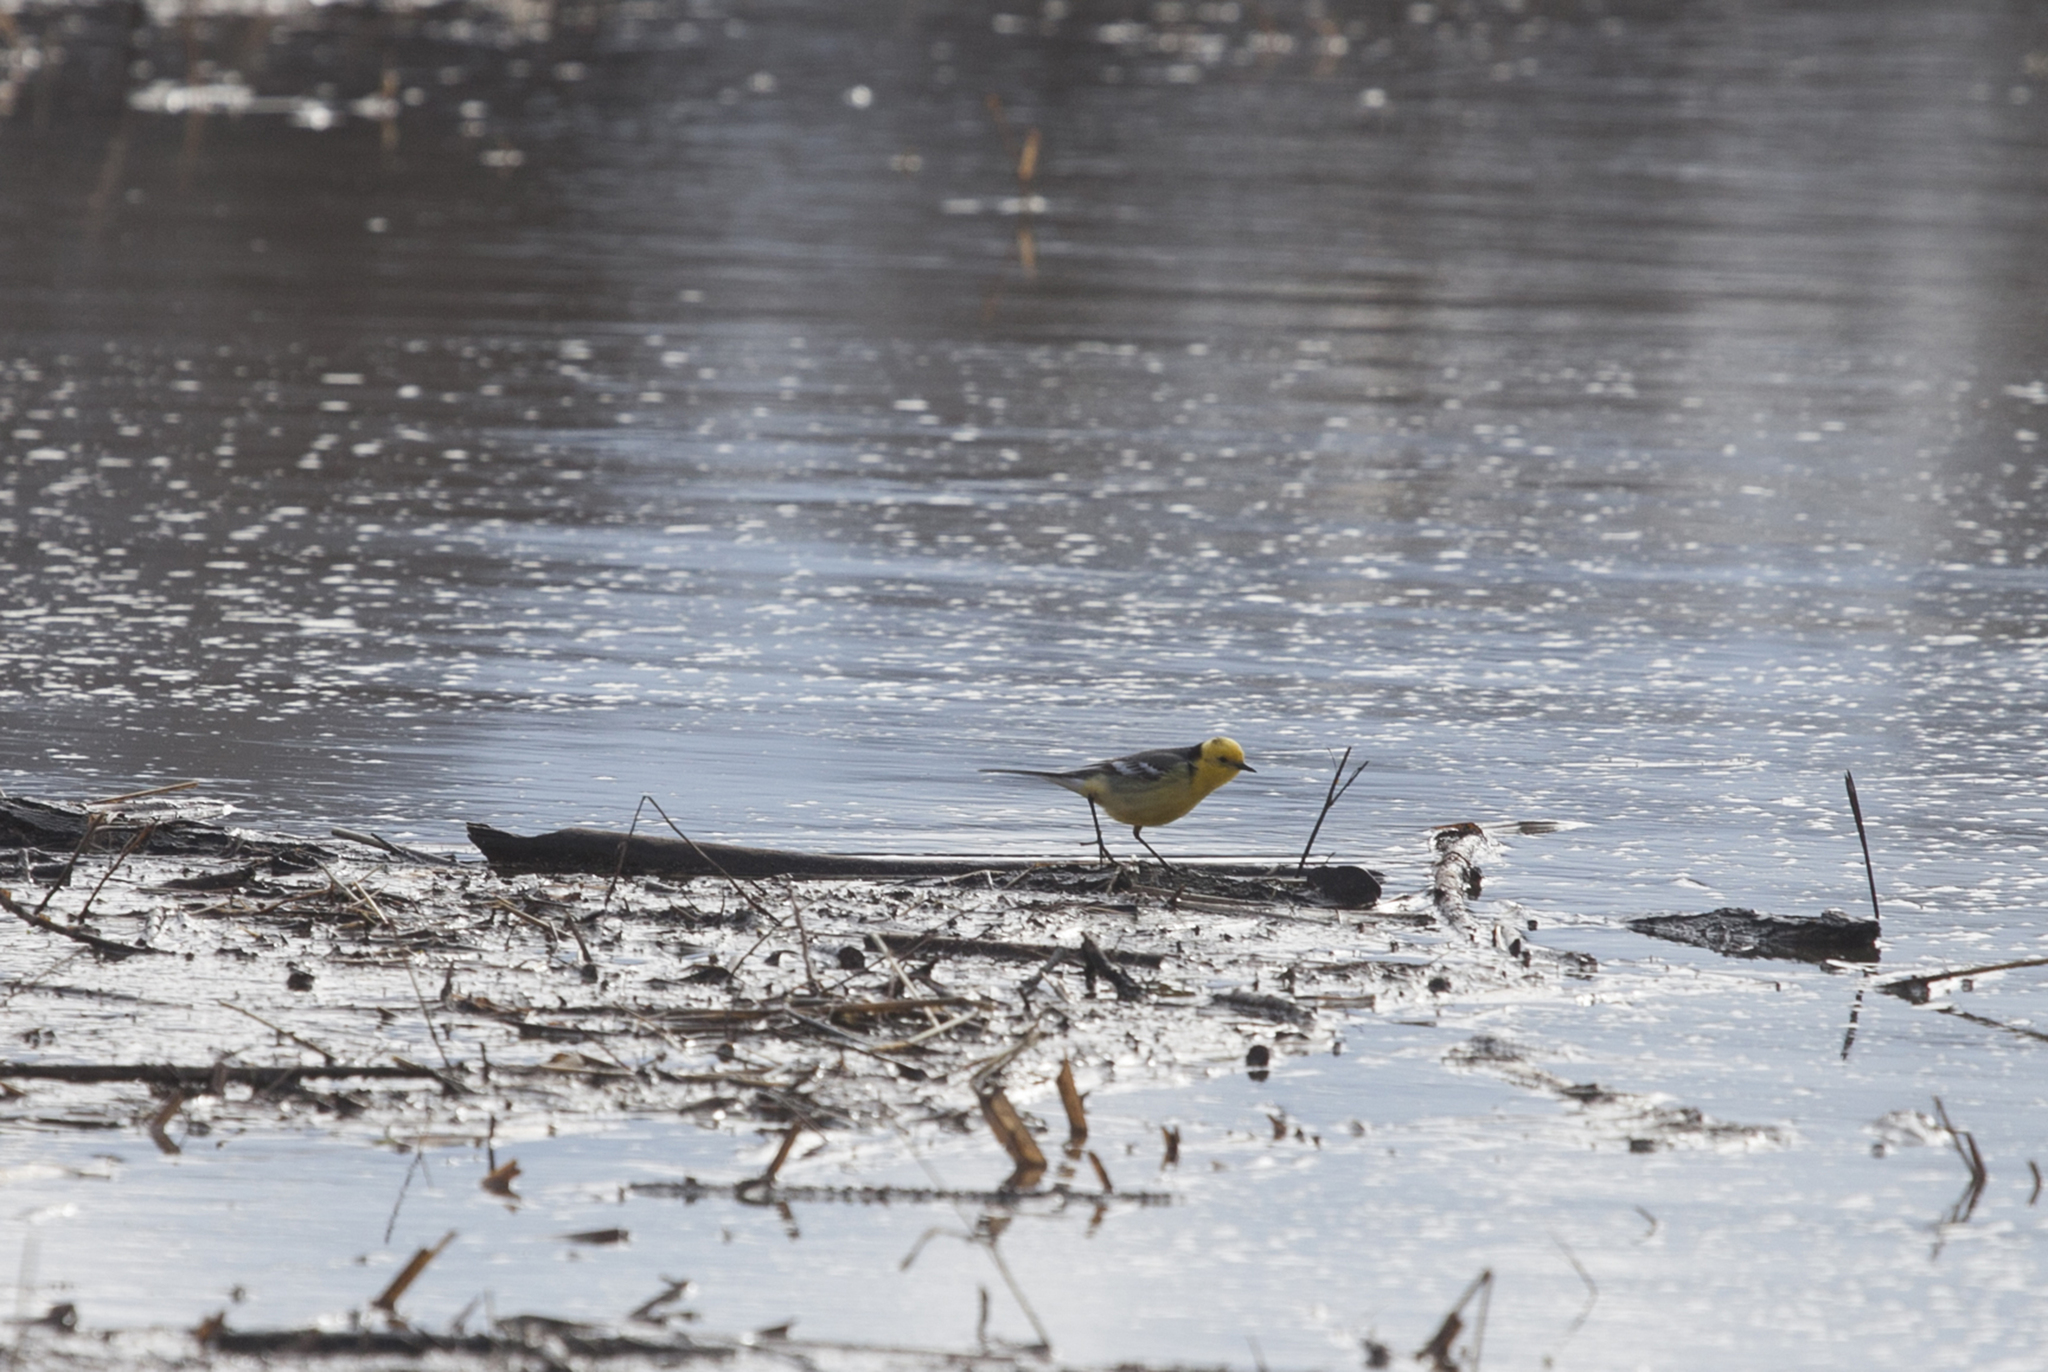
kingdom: Animalia
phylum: Chordata
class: Aves
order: Passeriformes
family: Motacillidae
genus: Motacilla
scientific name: Motacilla citreola
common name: Citrine wagtail
